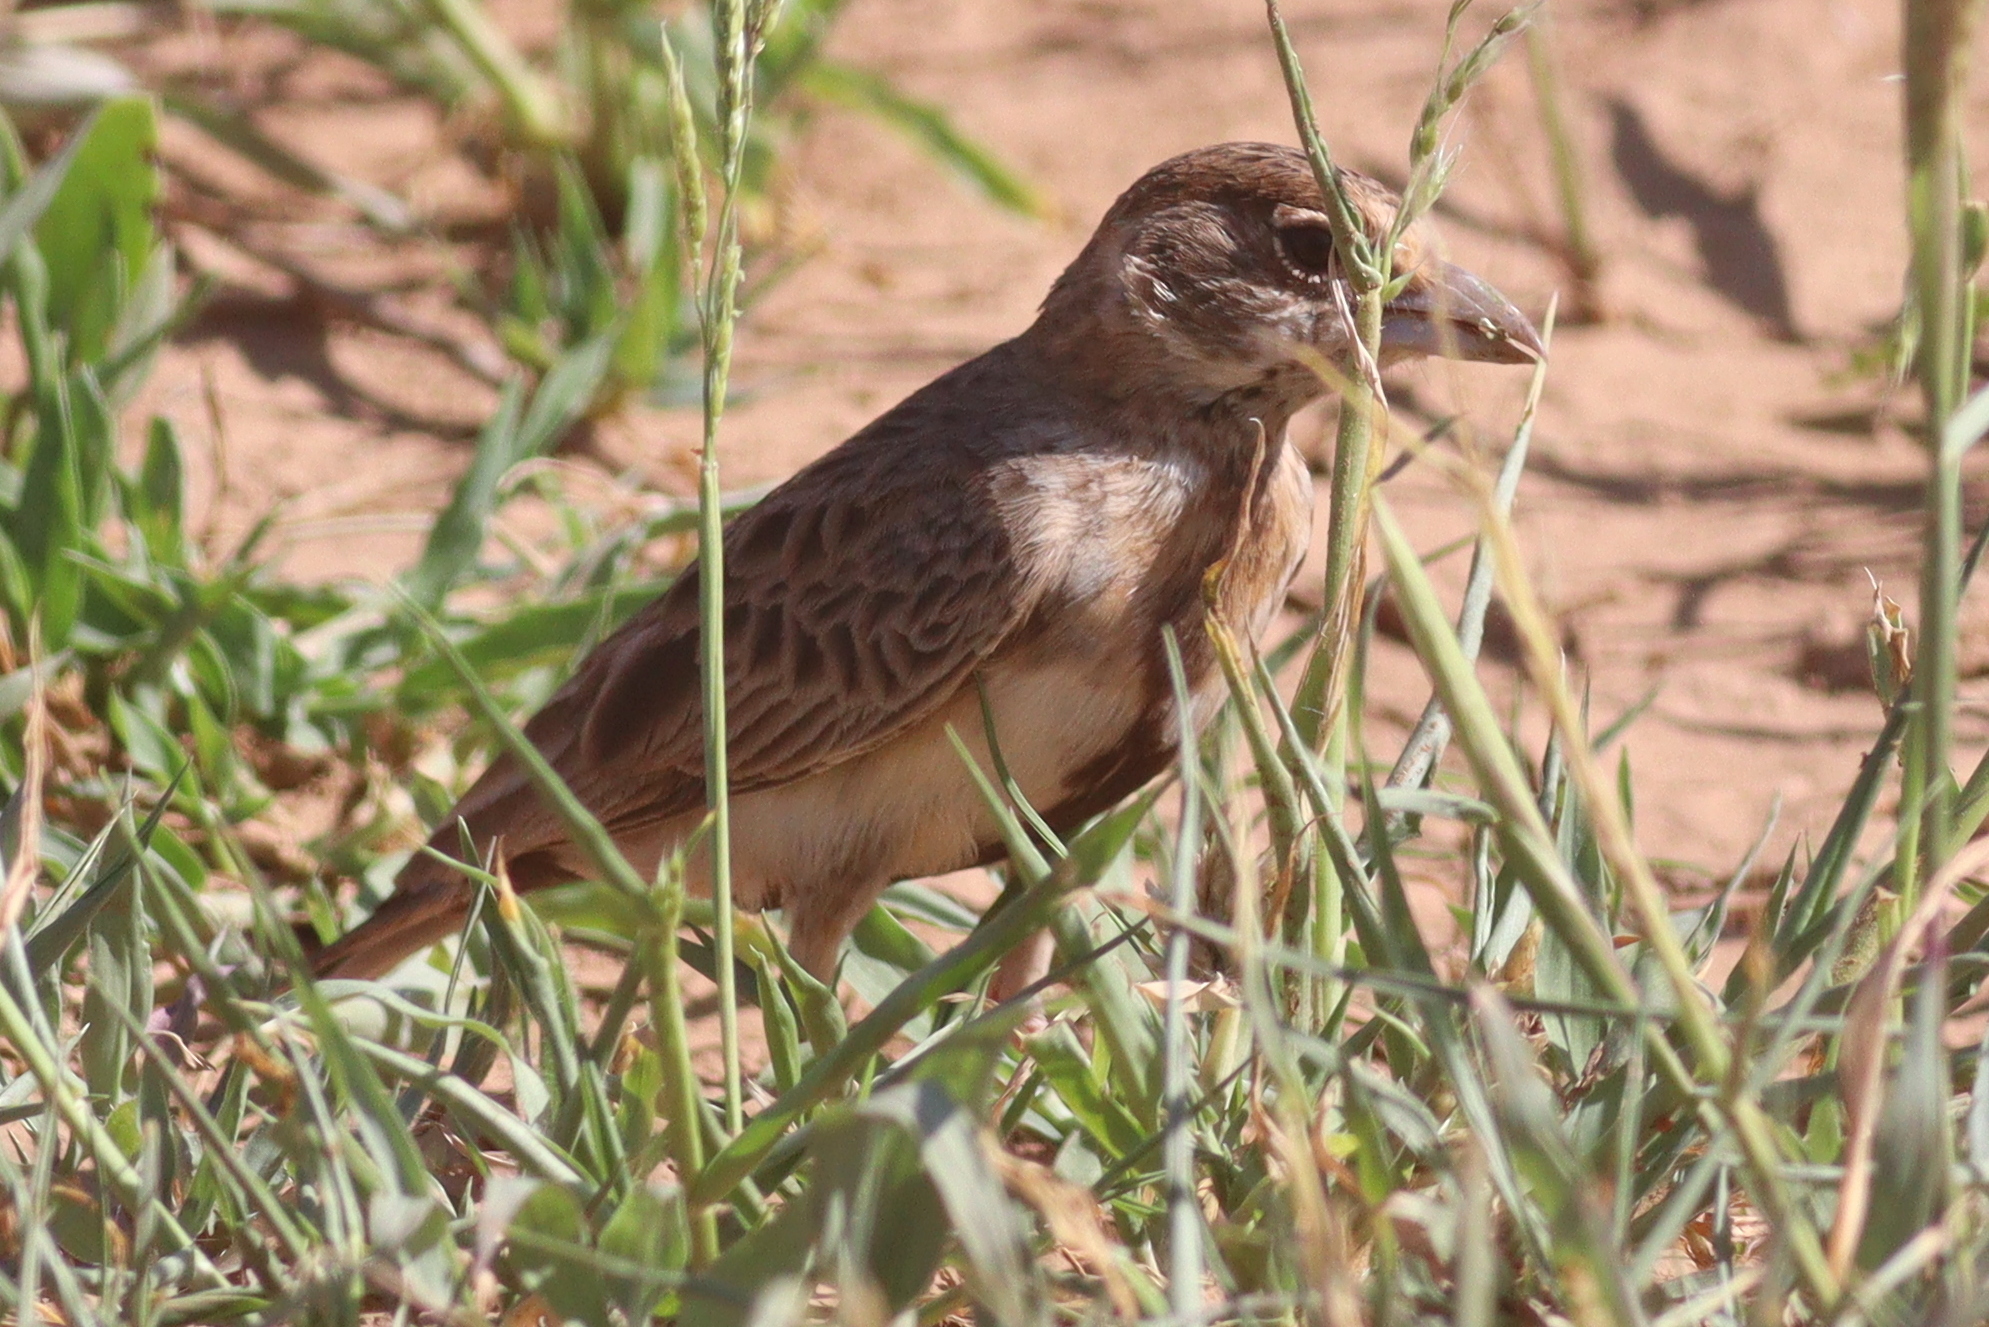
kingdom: Animalia
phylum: Chordata
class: Aves
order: Passeriformes
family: Alaudidae
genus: Eremopterix
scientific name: Eremopterix leucopareia
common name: Fischer's sparrow-lark
